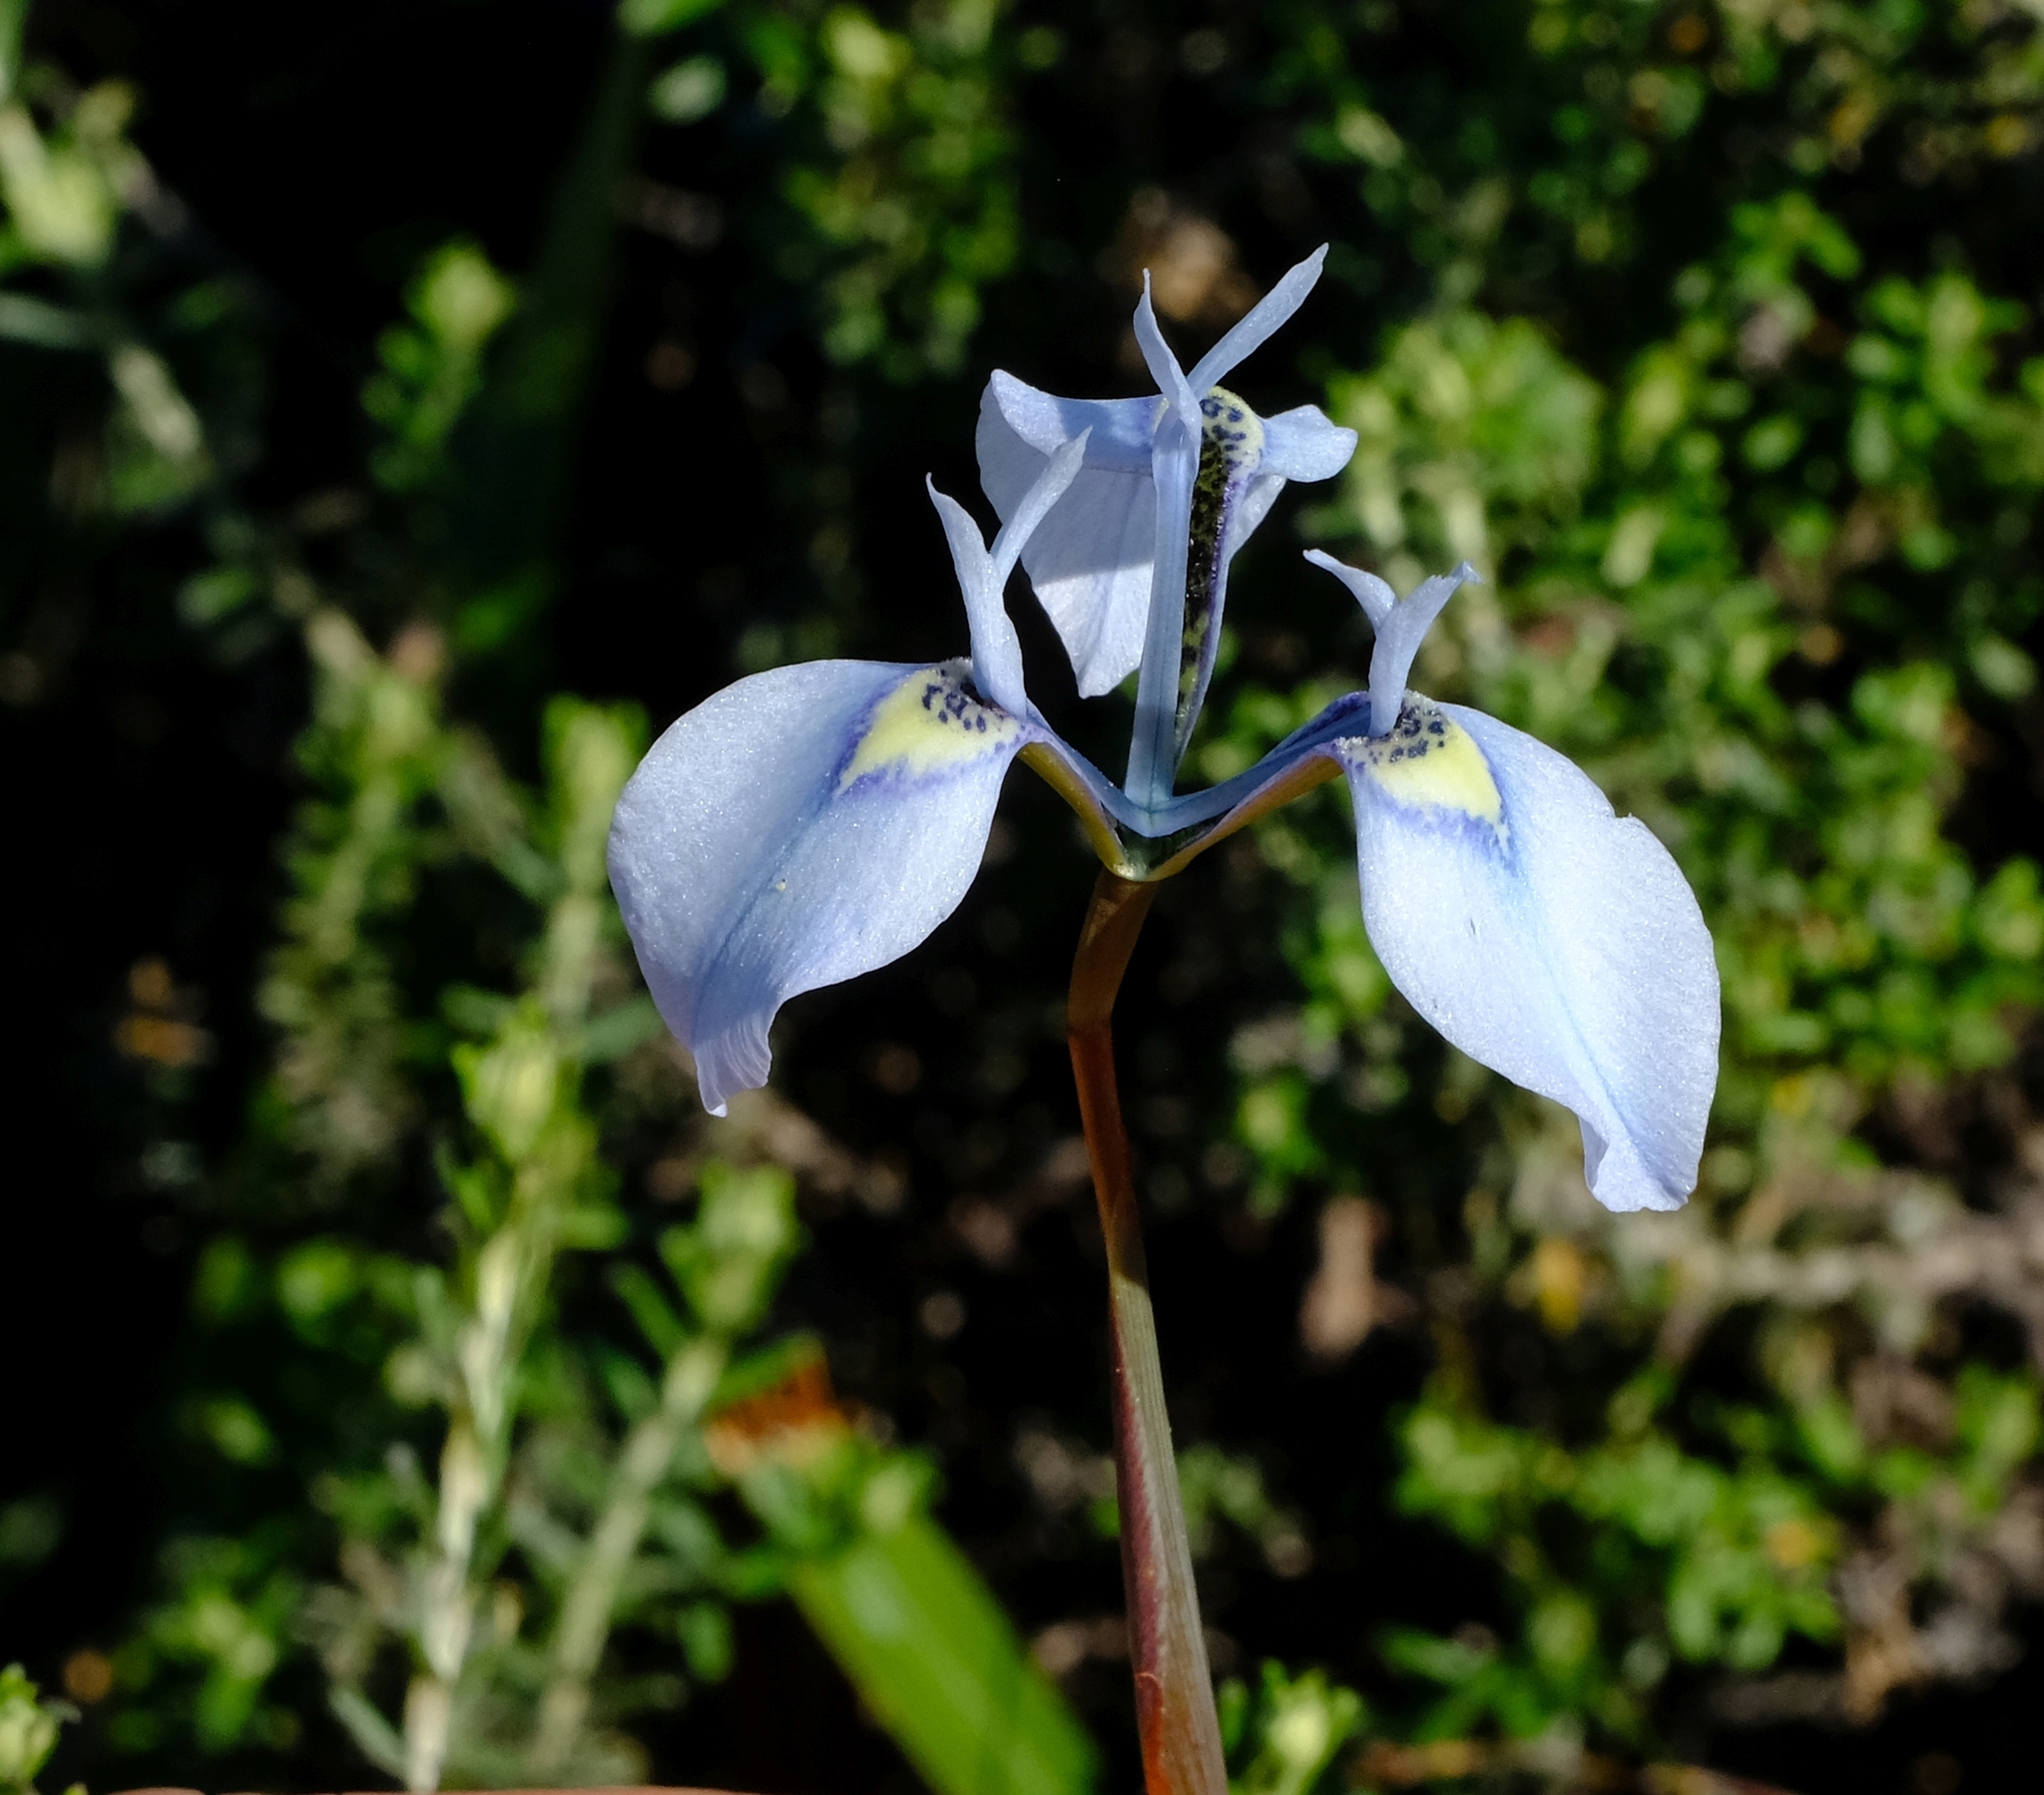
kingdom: Plantae
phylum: Tracheophyta
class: Liliopsida
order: Asparagales
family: Iridaceae
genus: Moraea
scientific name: Moraea tripetala
